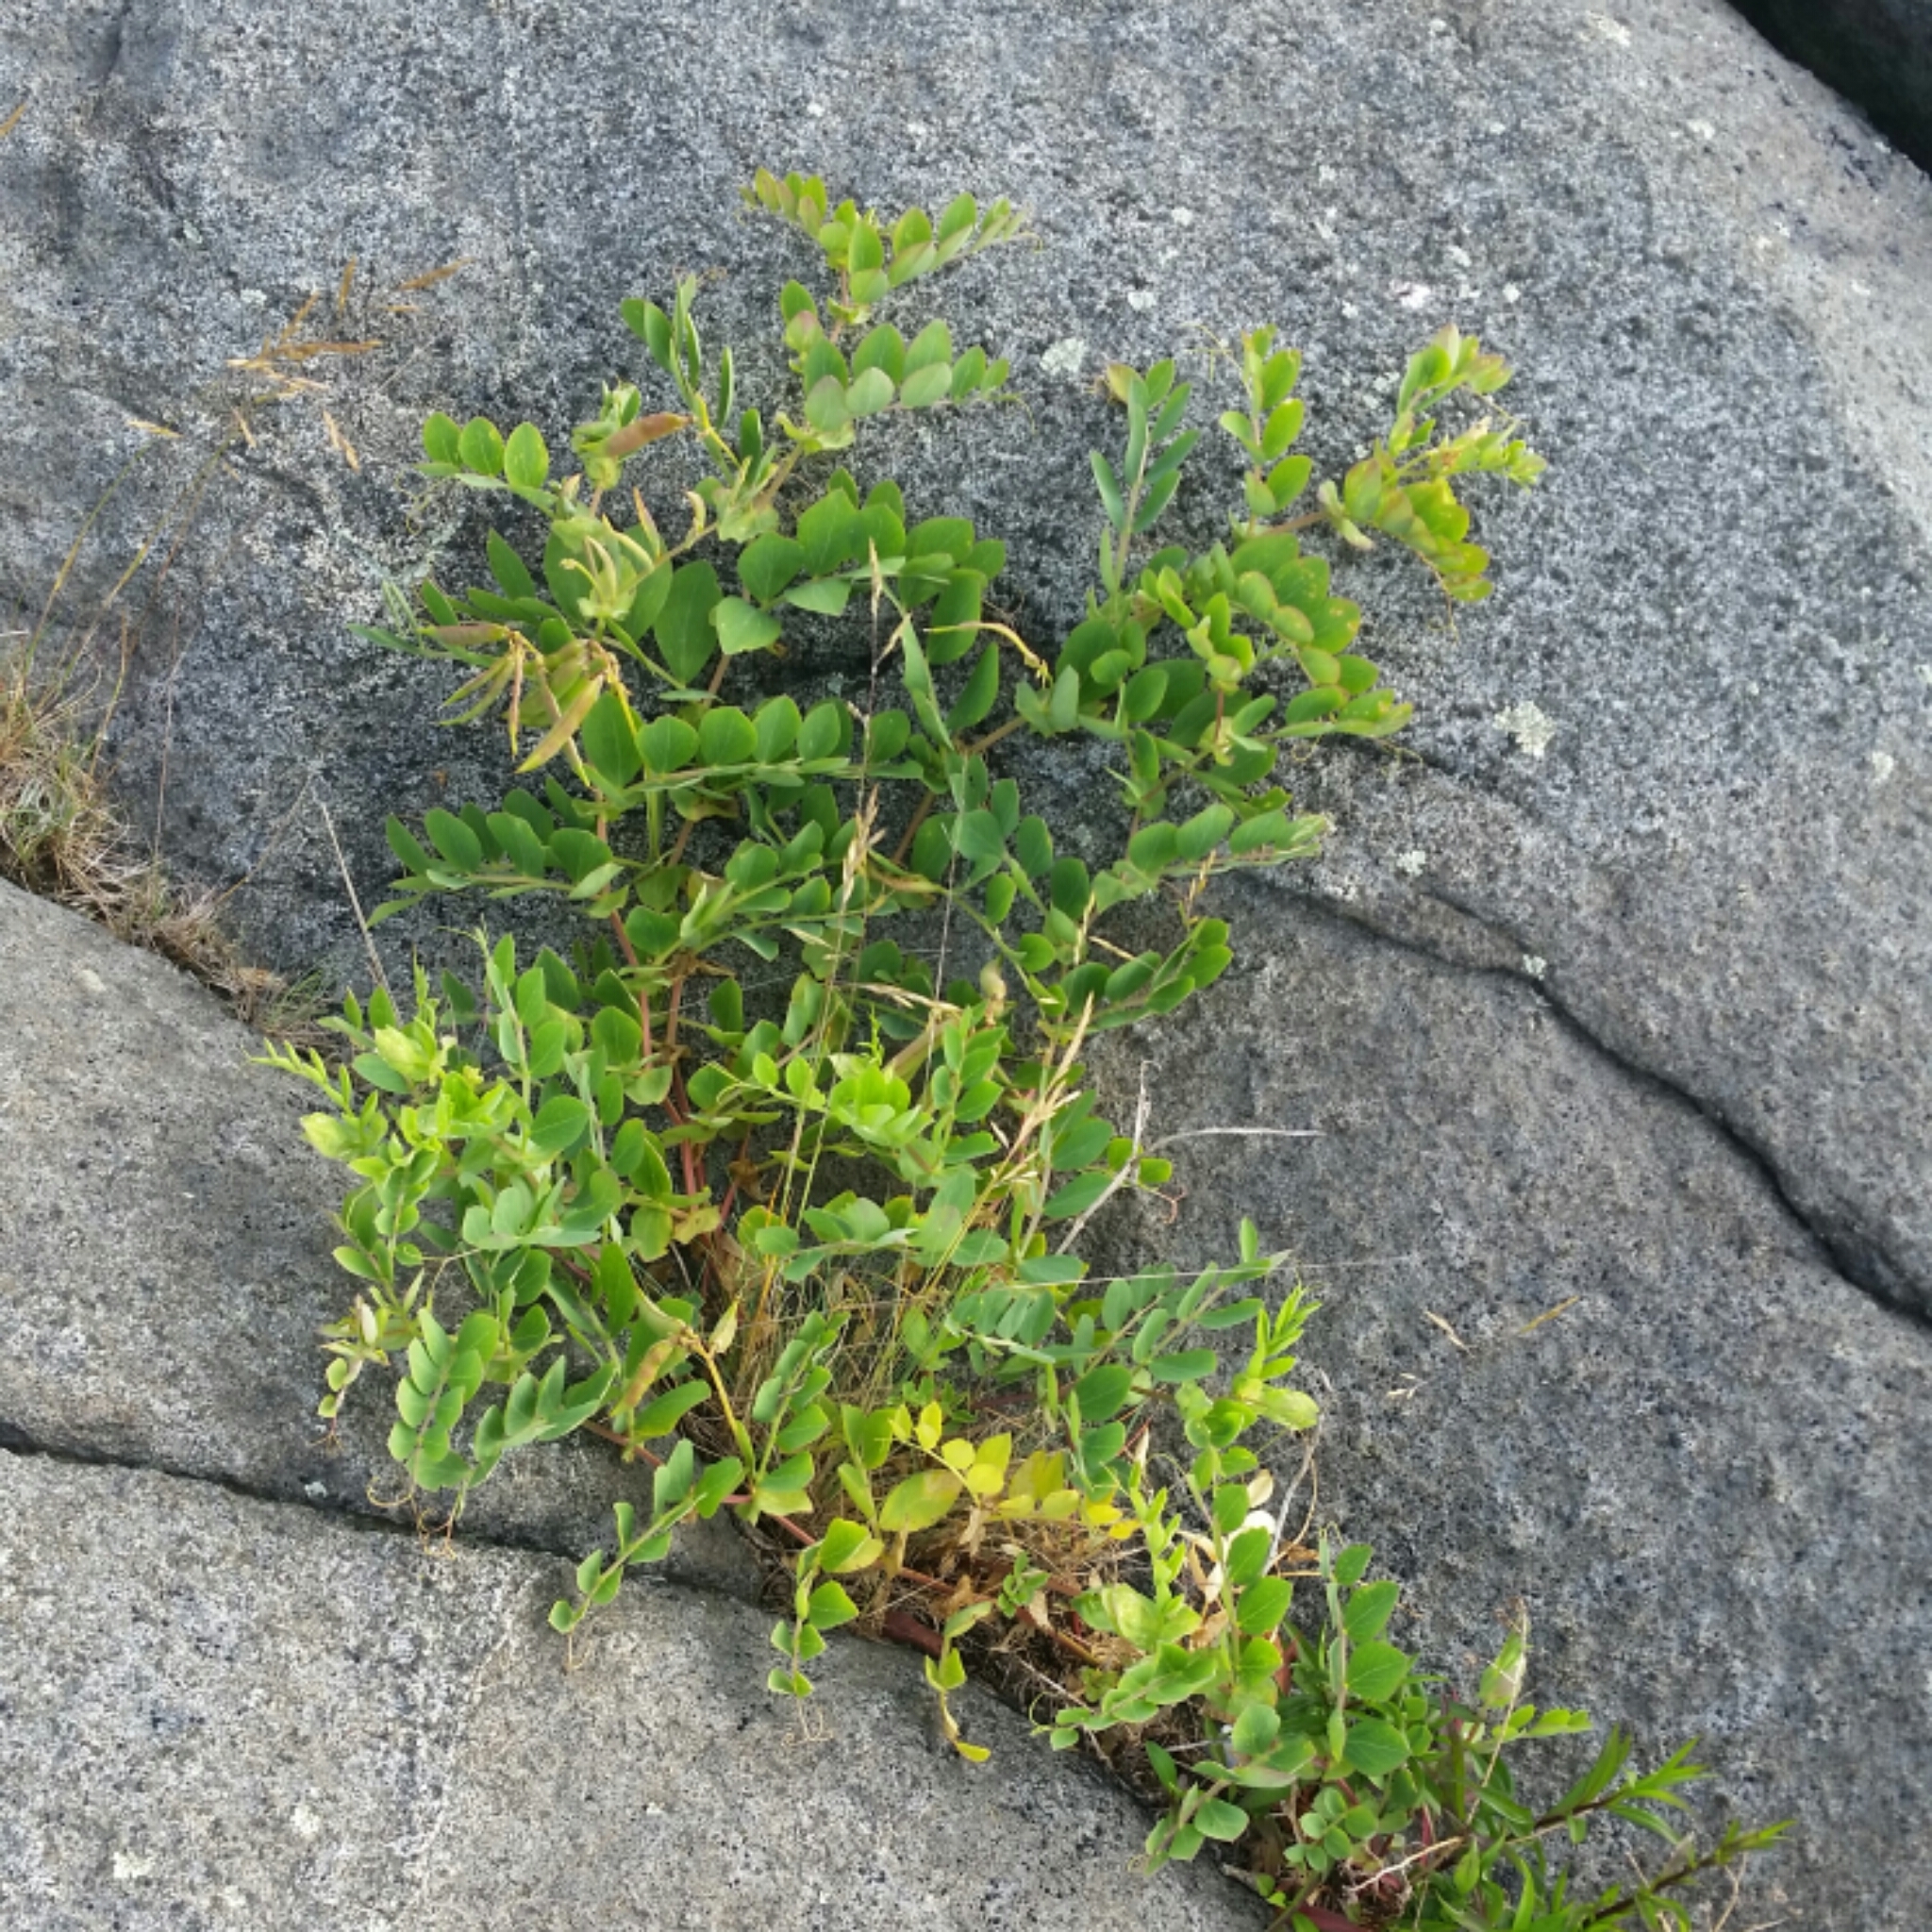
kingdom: Plantae
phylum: Tracheophyta
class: Magnoliopsida
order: Fabales
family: Fabaceae
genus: Lathyrus
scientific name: Lathyrus japonicus
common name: Sea pea
